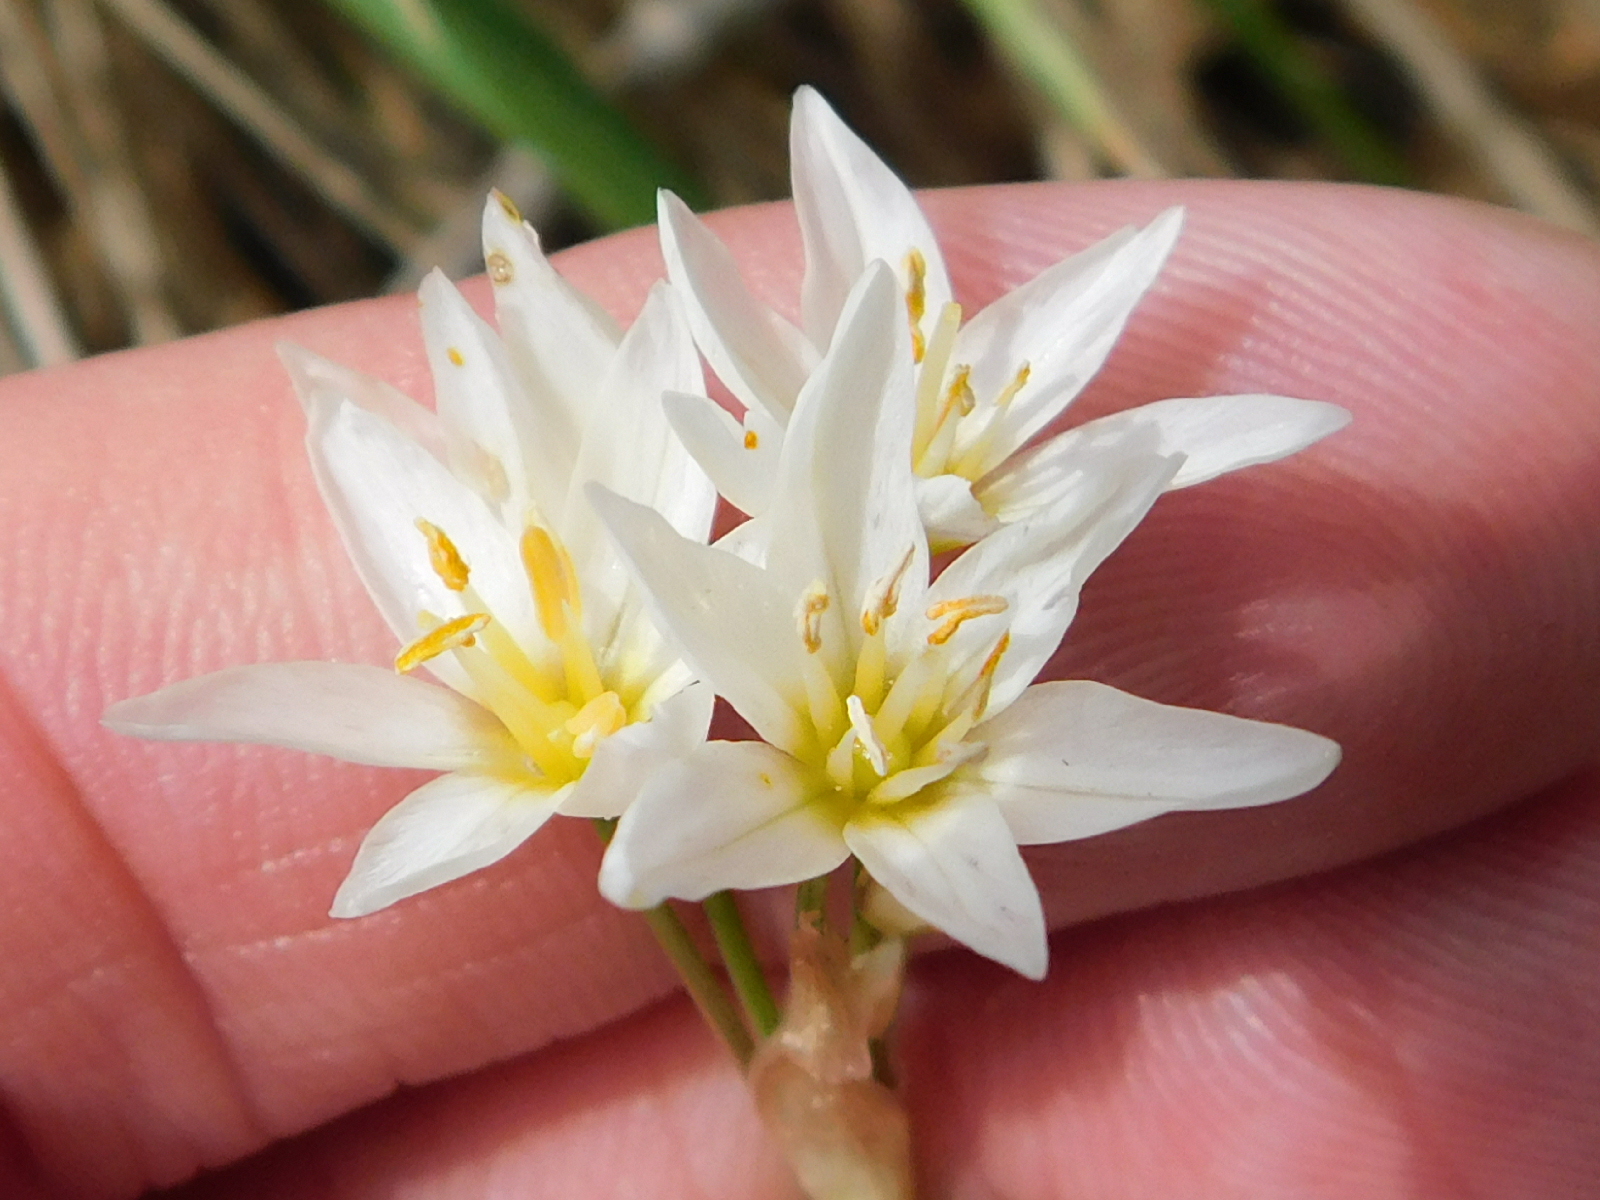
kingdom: Plantae
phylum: Tracheophyta
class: Liliopsida
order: Asparagales
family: Amaryllidaceae
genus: Nothoscordum
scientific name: Nothoscordum bivalve
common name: Crow-poison
